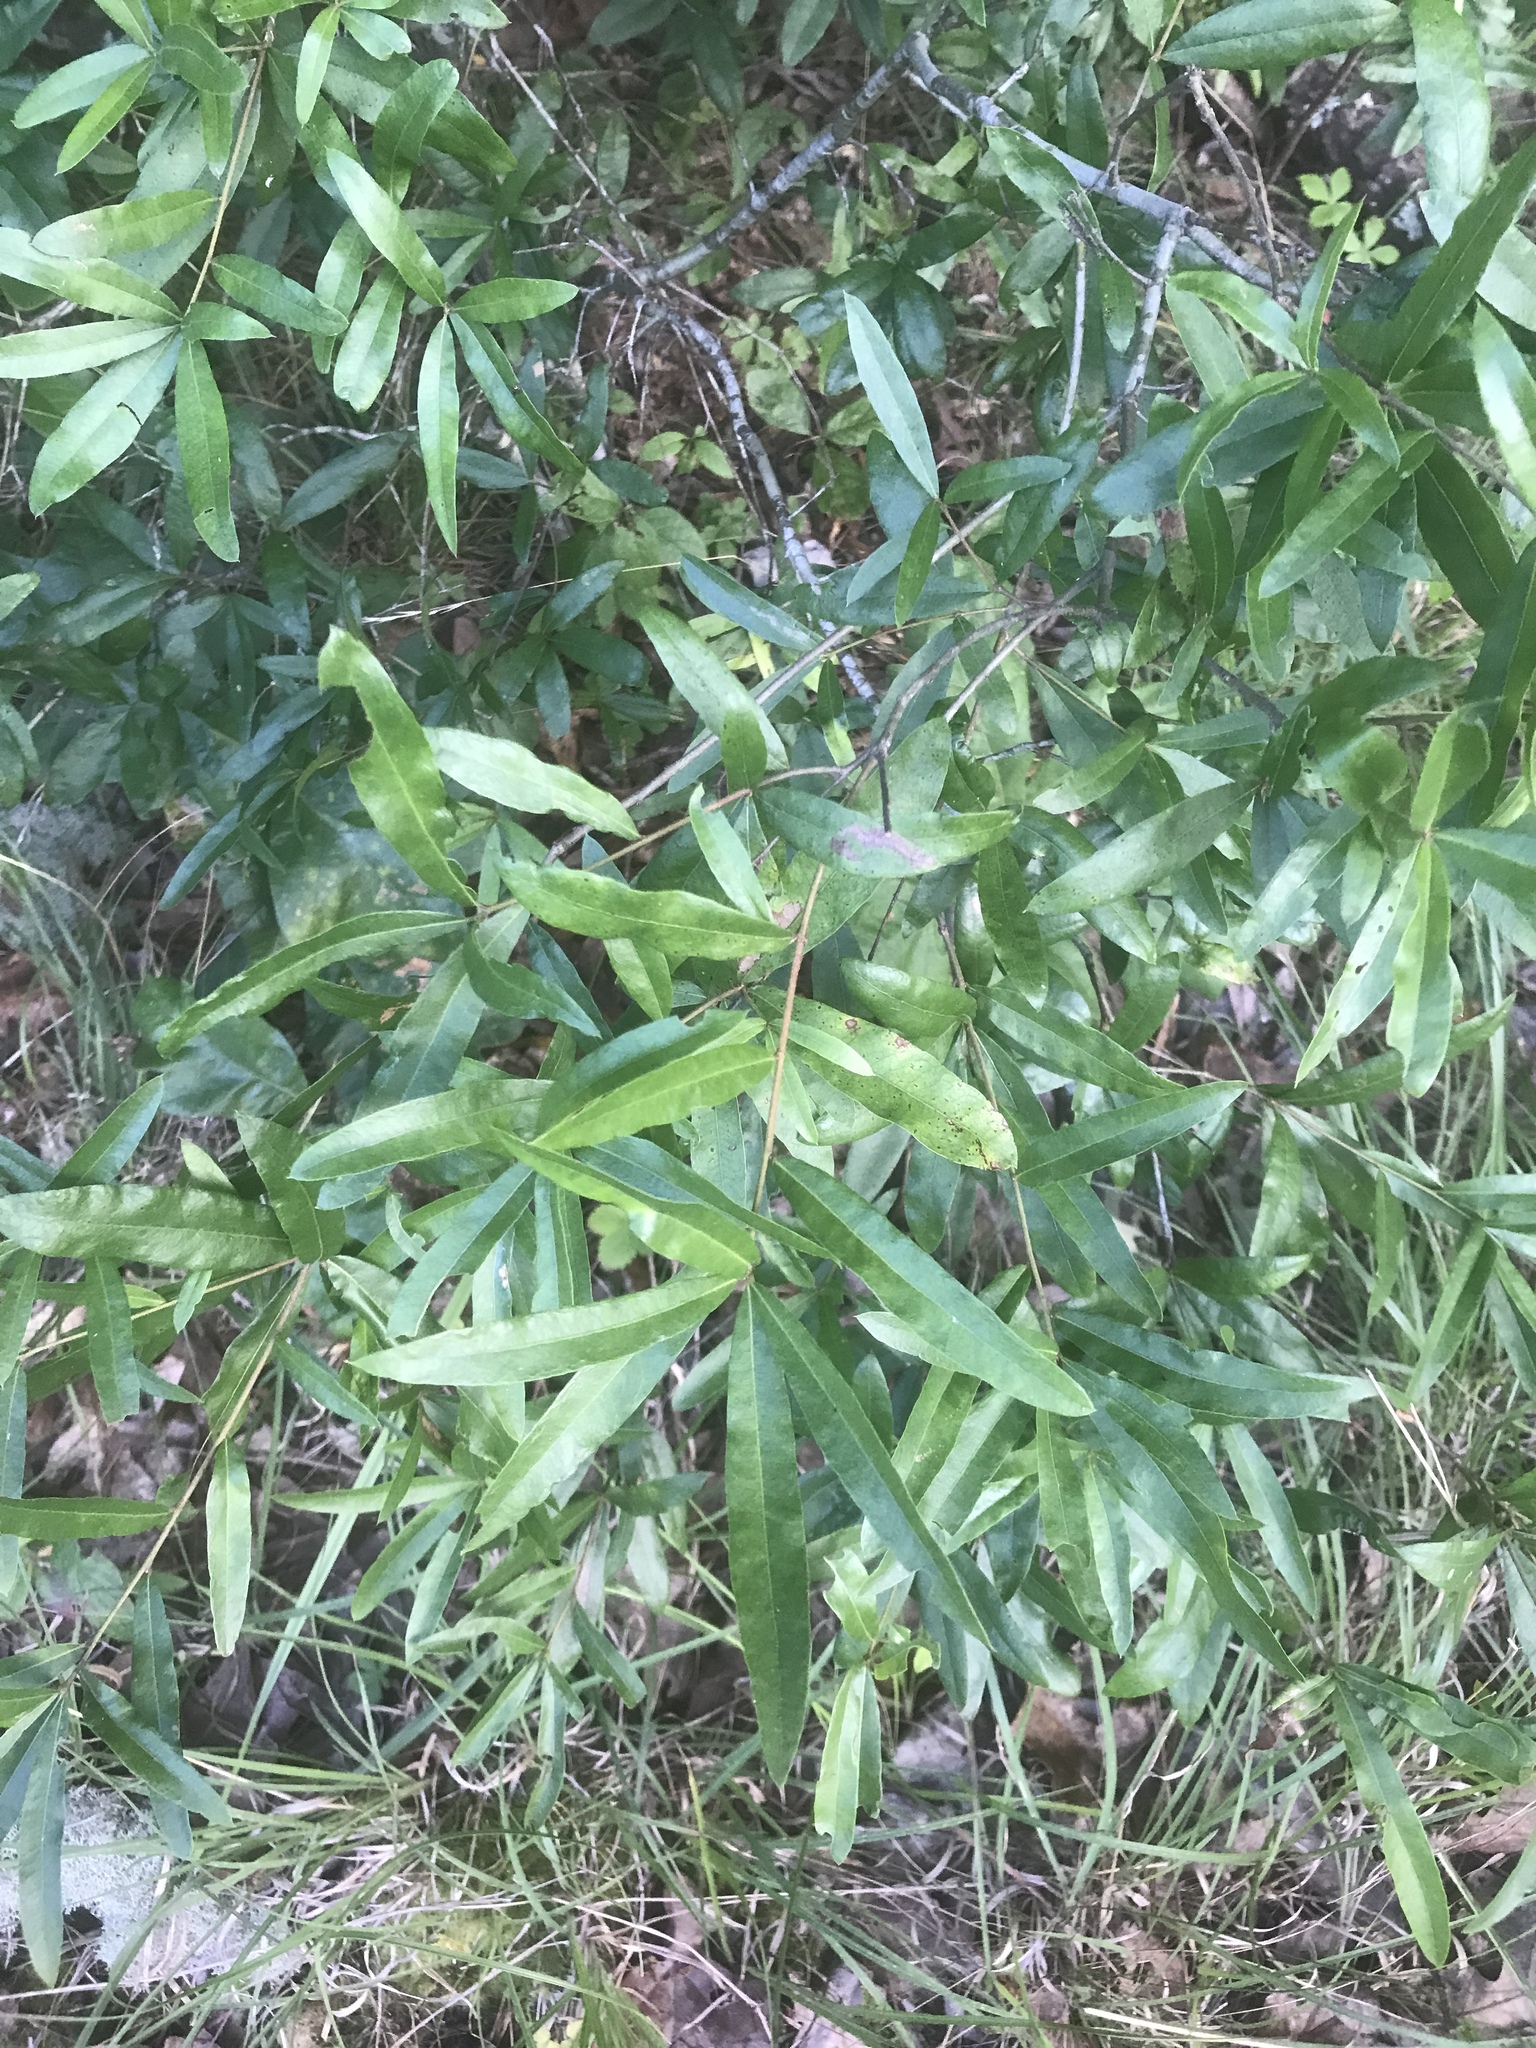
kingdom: Plantae
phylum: Tracheophyta
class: Magnoliopsida
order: Fagales
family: Fagaceae
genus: Quercus
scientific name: Quercus phellos
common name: Willow oak
